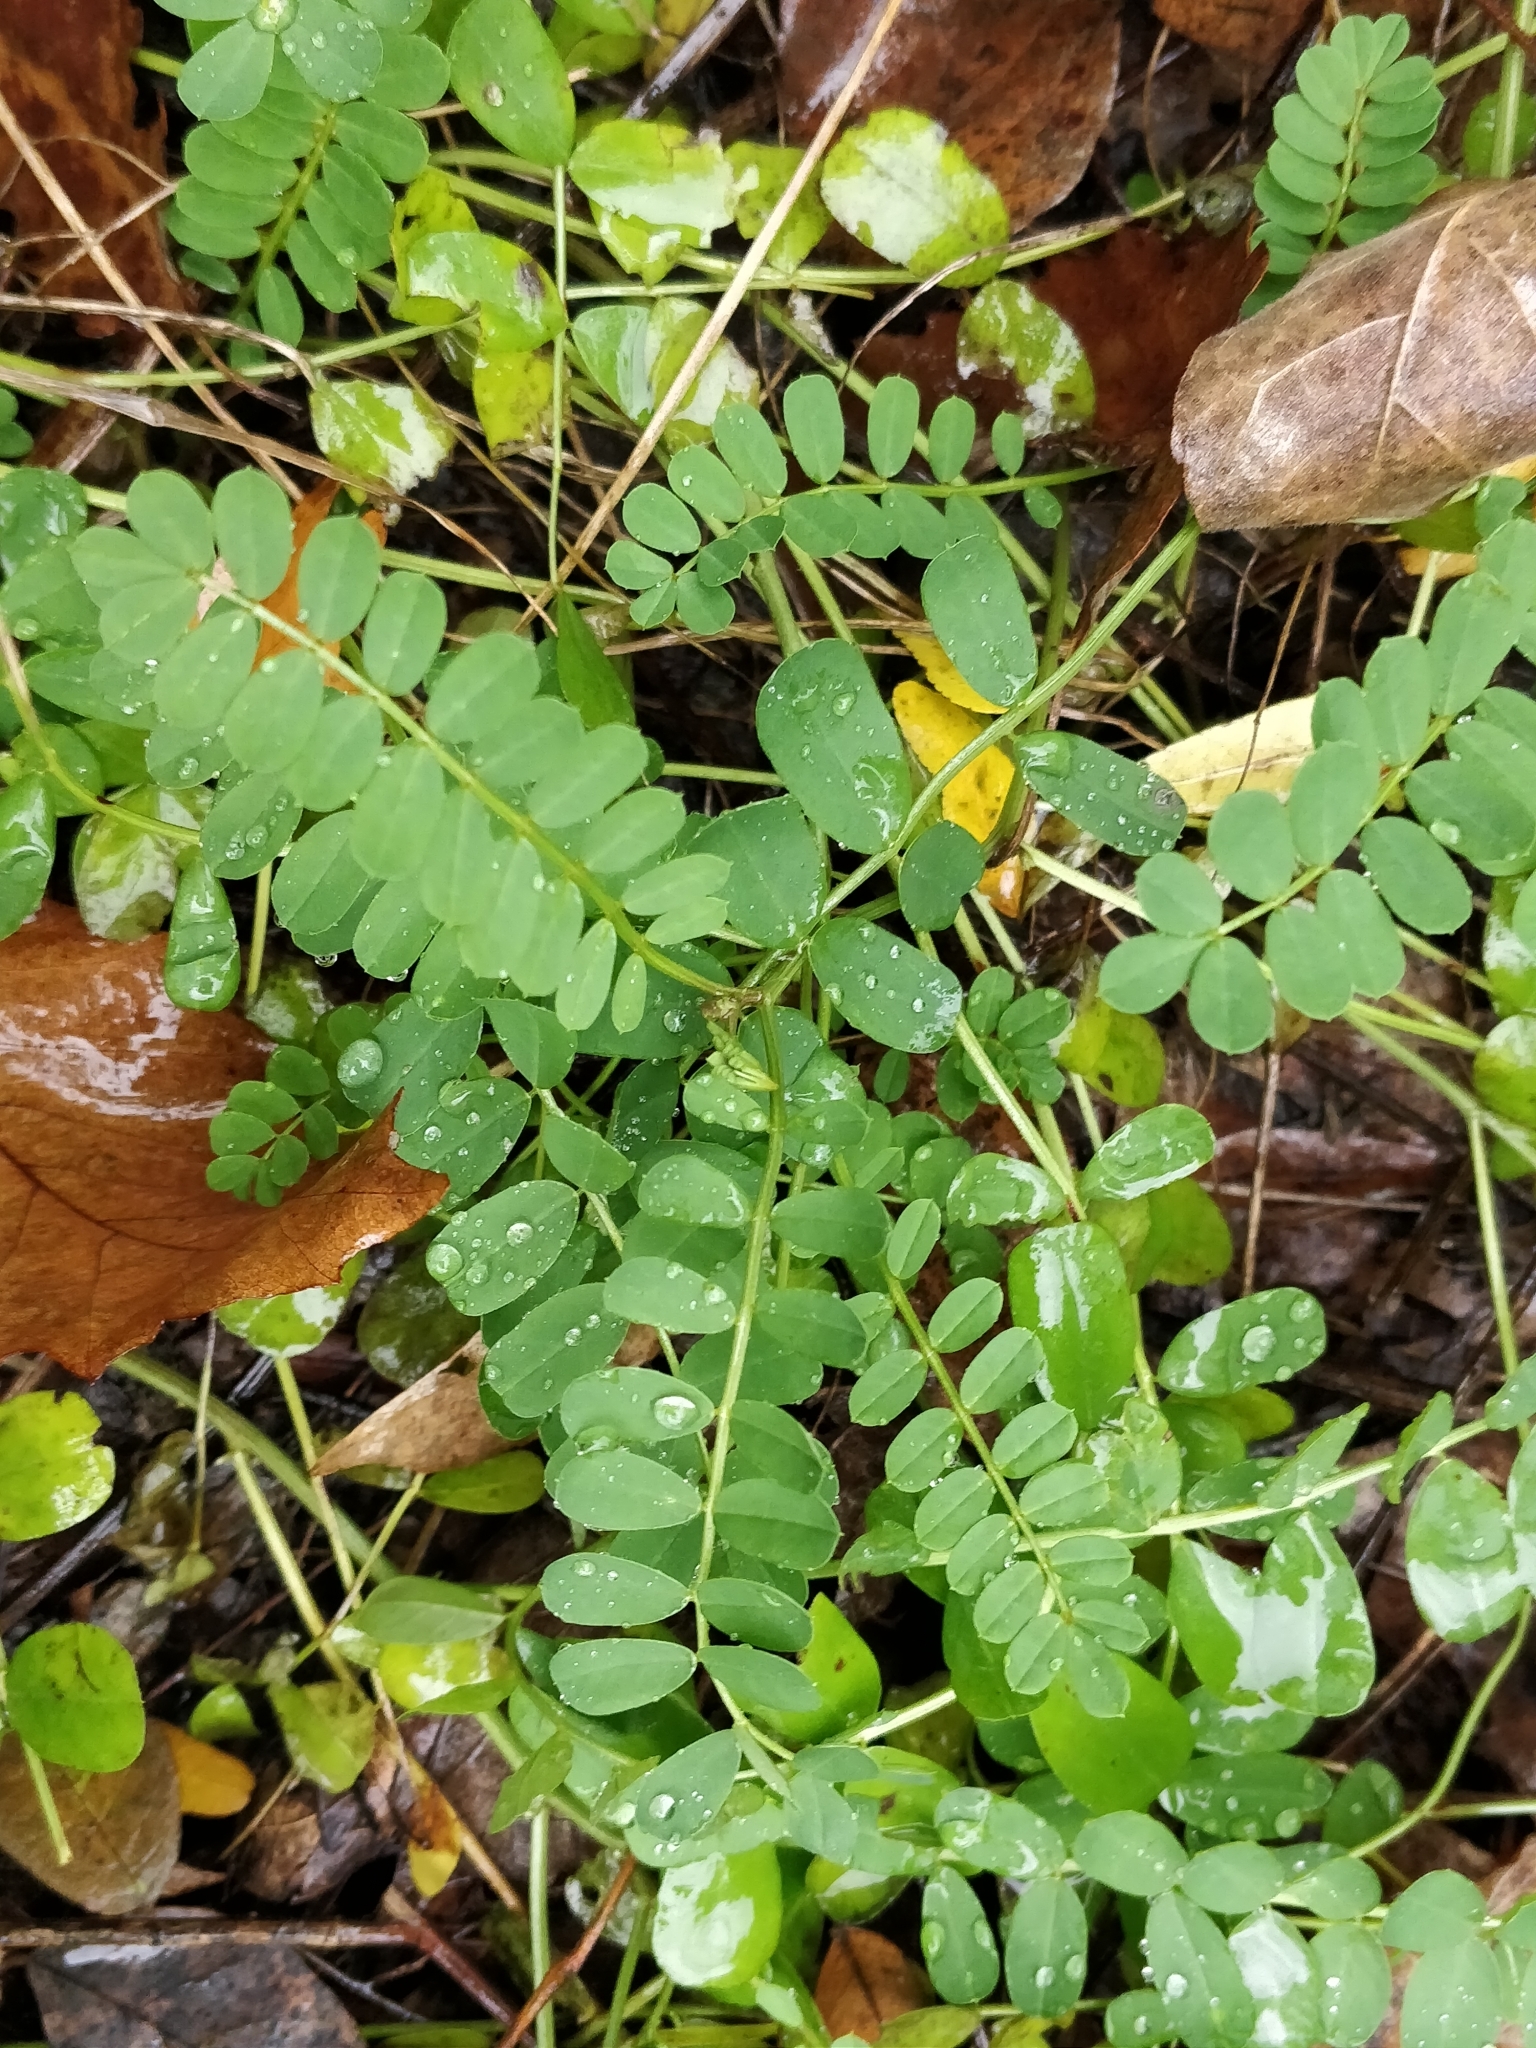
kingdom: Plantae
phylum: Tracheophyta
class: Magnoliopsida
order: Fabales
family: Fabaceae
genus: Coronilla
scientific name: Coronilla varia
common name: Crownvetch
